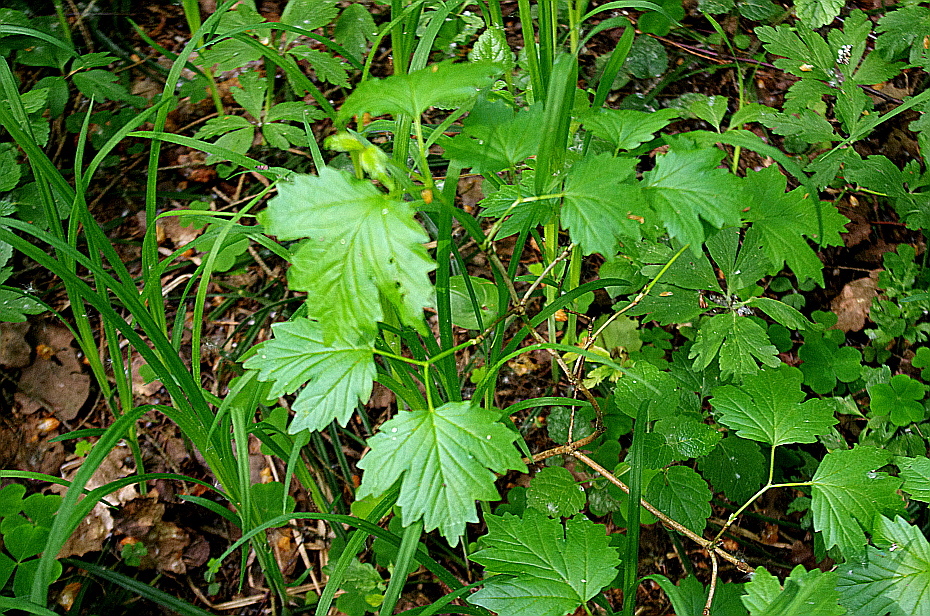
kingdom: Plantae
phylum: Tracheophyta
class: Magnoliopsida
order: Dipsacales
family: Viburnaceae
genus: Viburnum
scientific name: Viburnum opulus
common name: Guelder-rose
